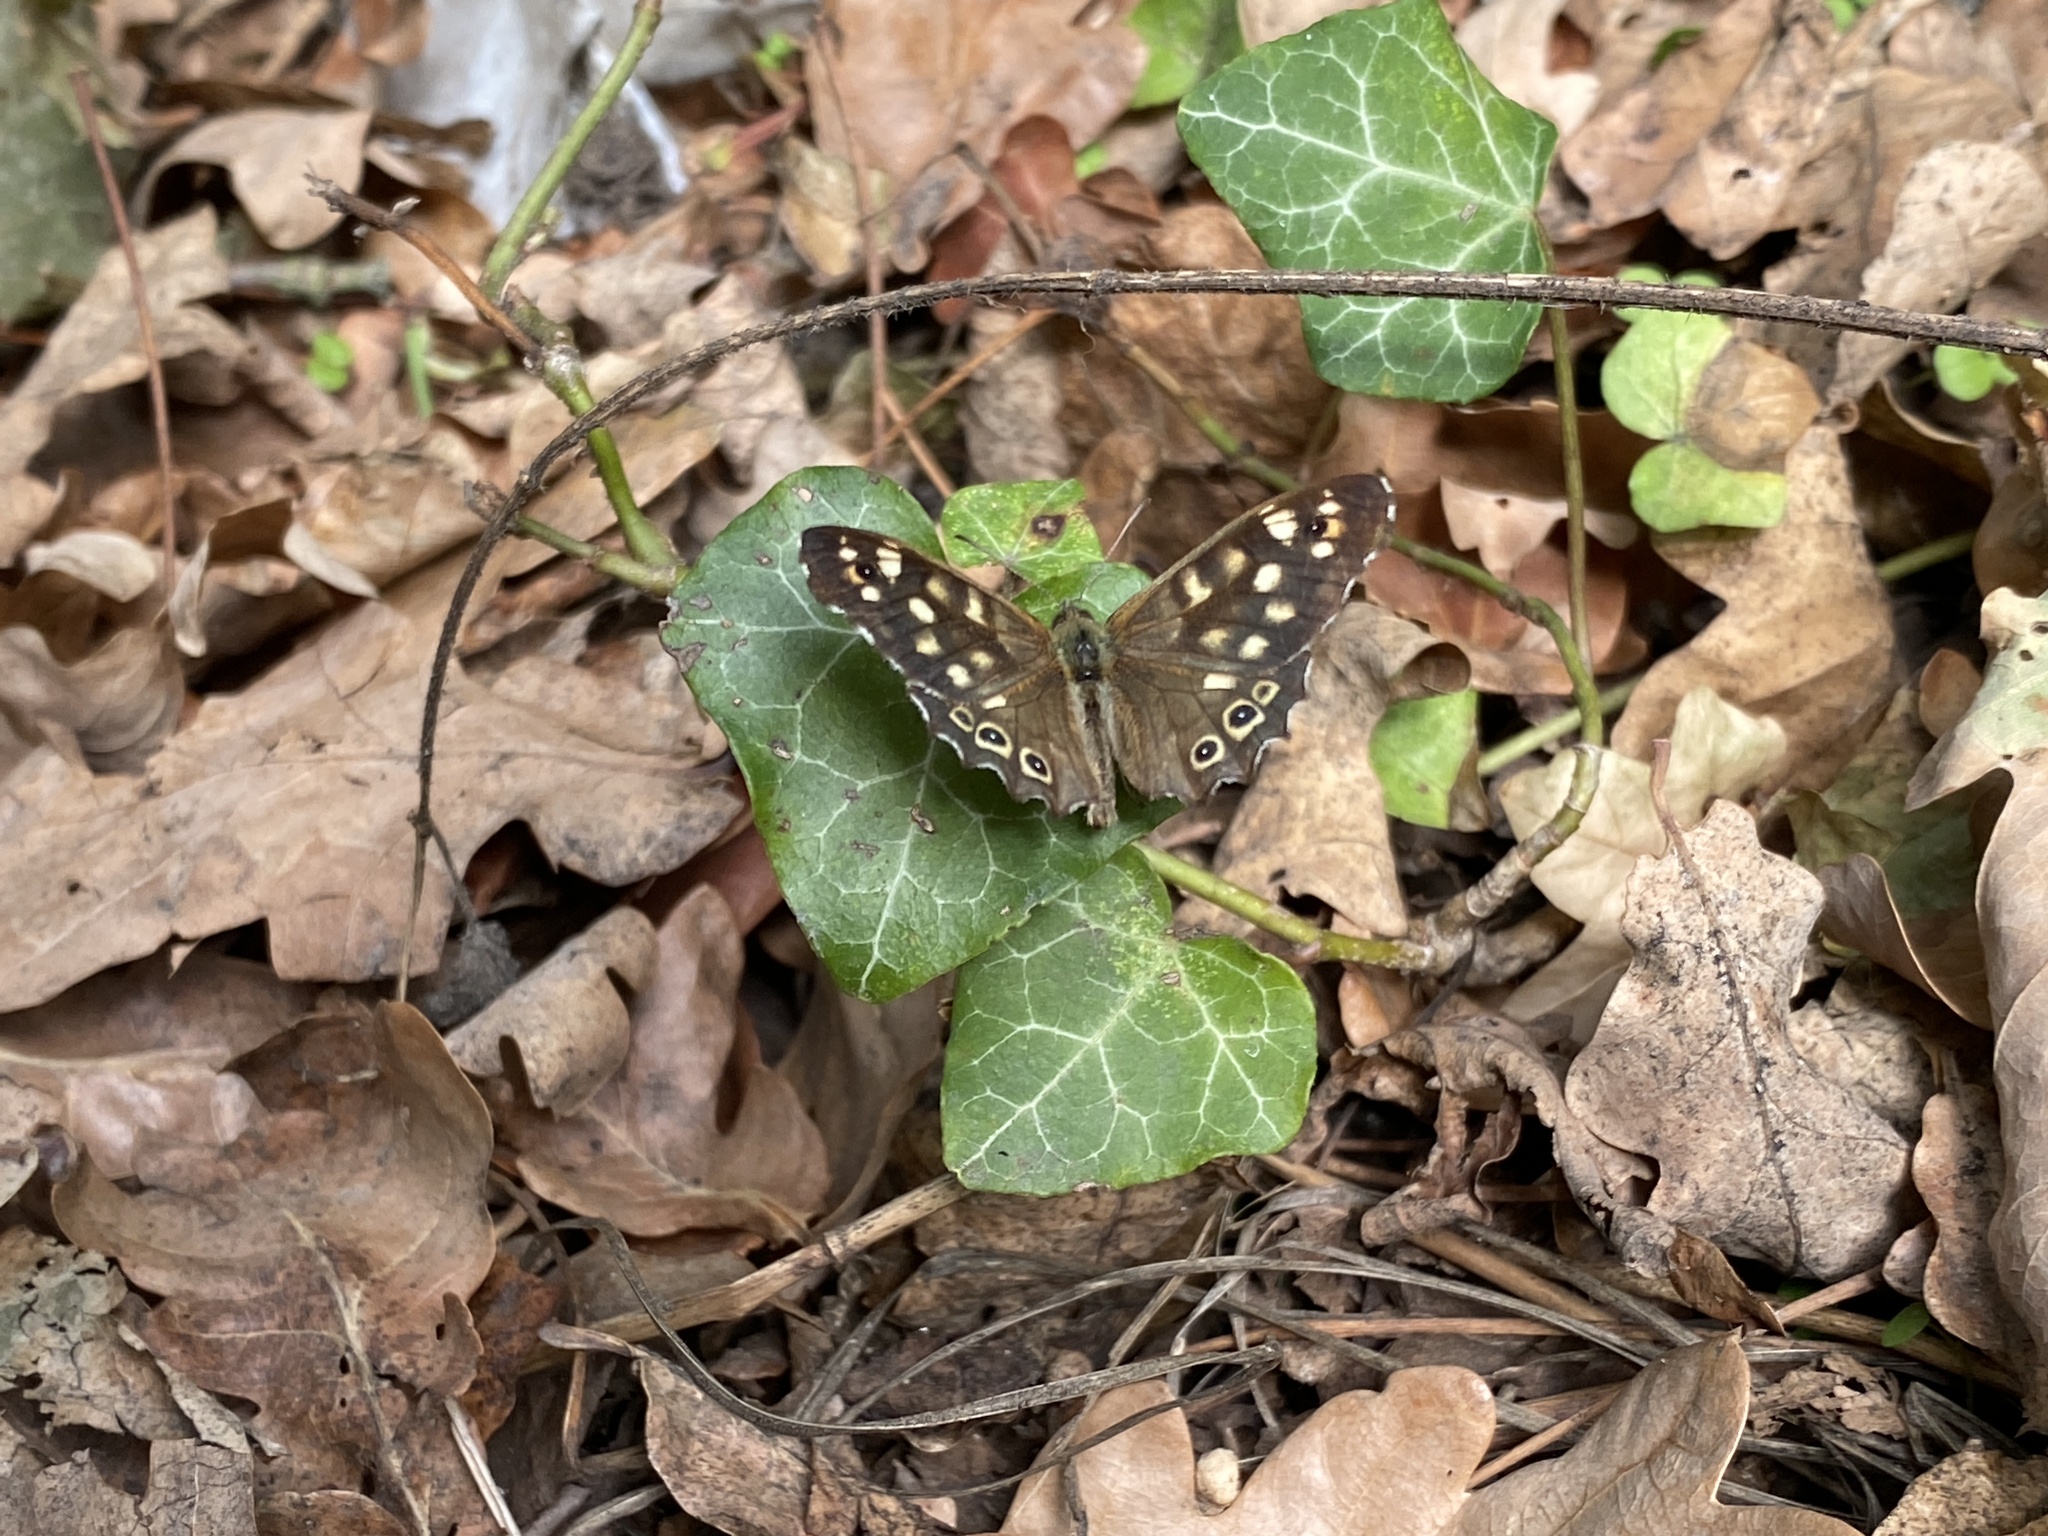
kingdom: Animalia
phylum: Arthropoda
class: Insecta
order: Lepidoptera
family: Nymphalidae
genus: Pararge
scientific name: Pararge aegeria
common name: Speckled wood
